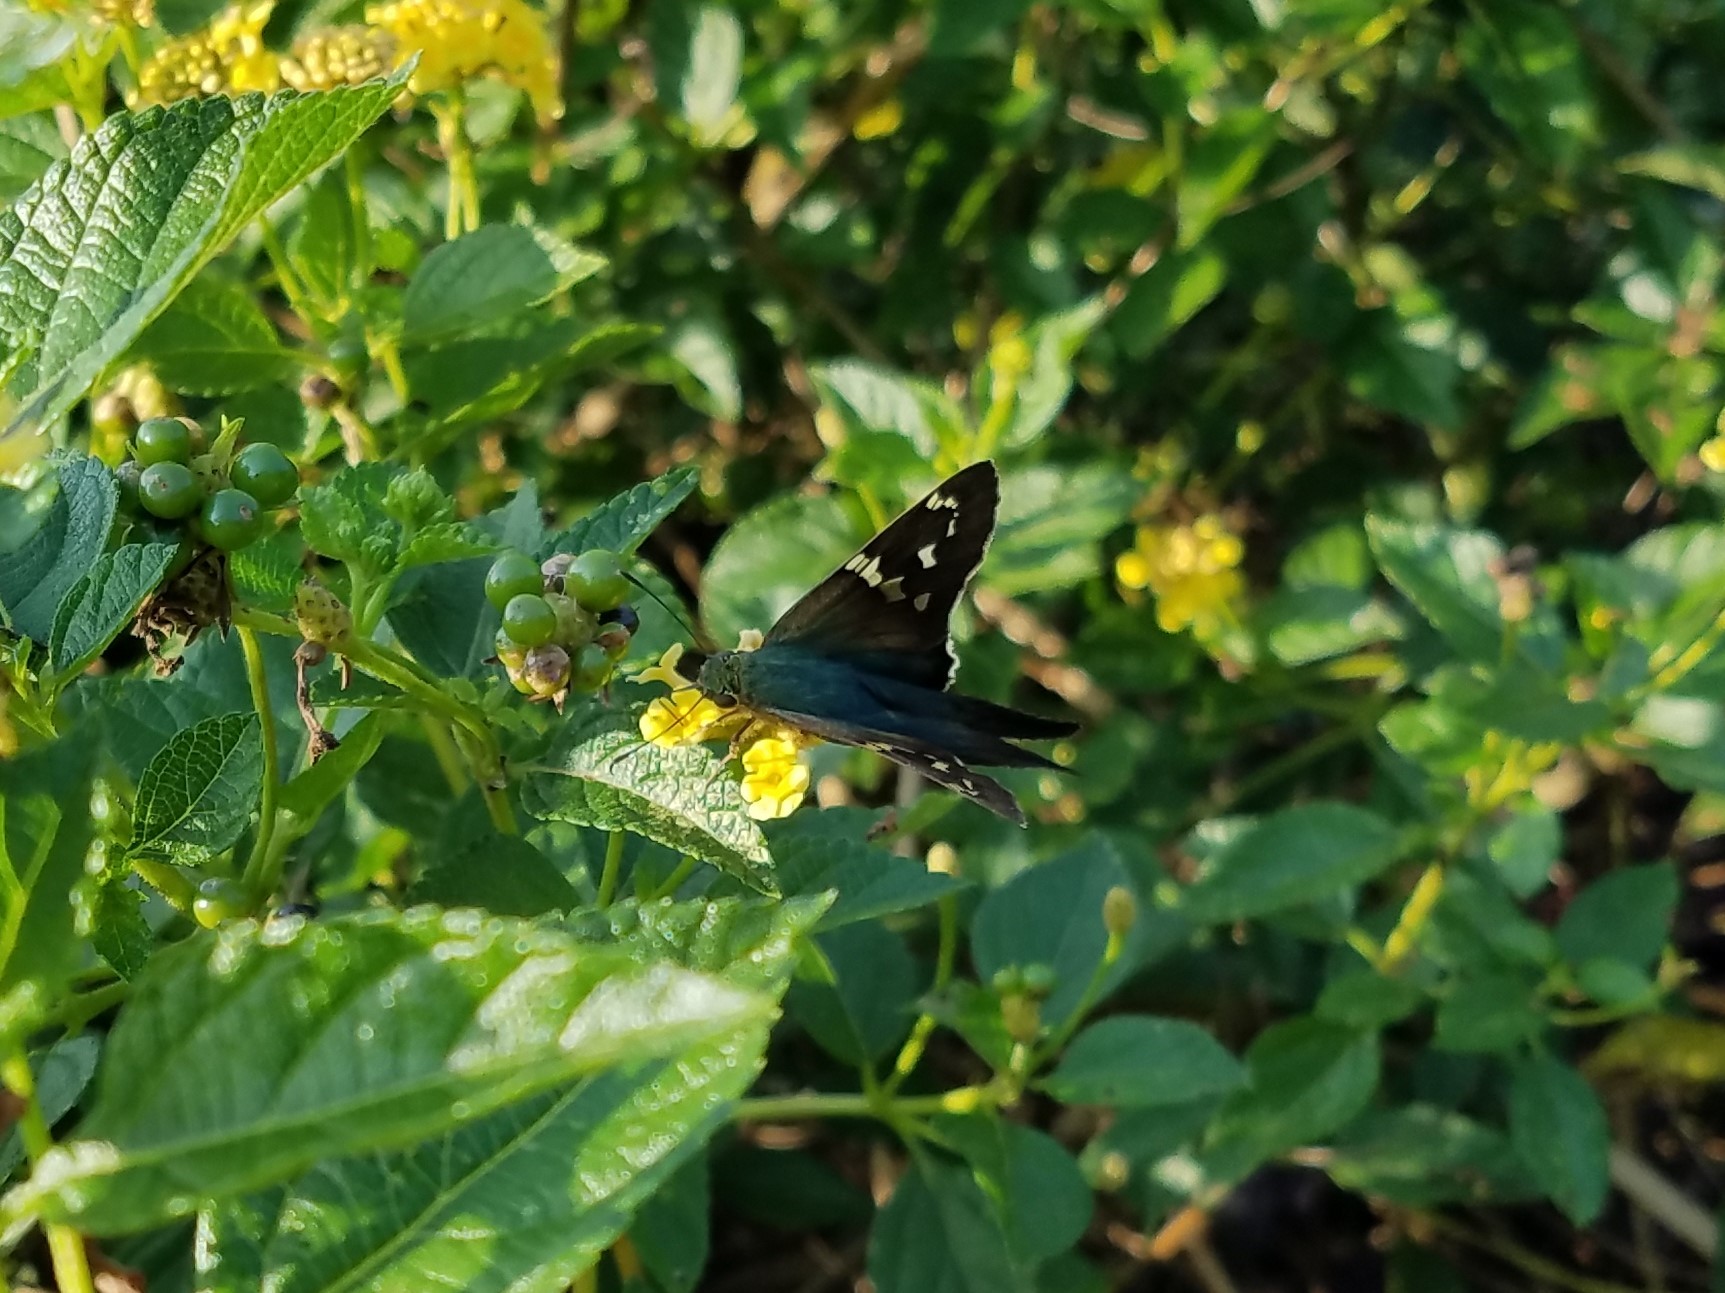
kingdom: Animalia
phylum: Arthropoda
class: Insecta
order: Lepidoptera
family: Hesperiidae
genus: Urbanus
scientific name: Urbanus proteus
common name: Long-tailed skipper
